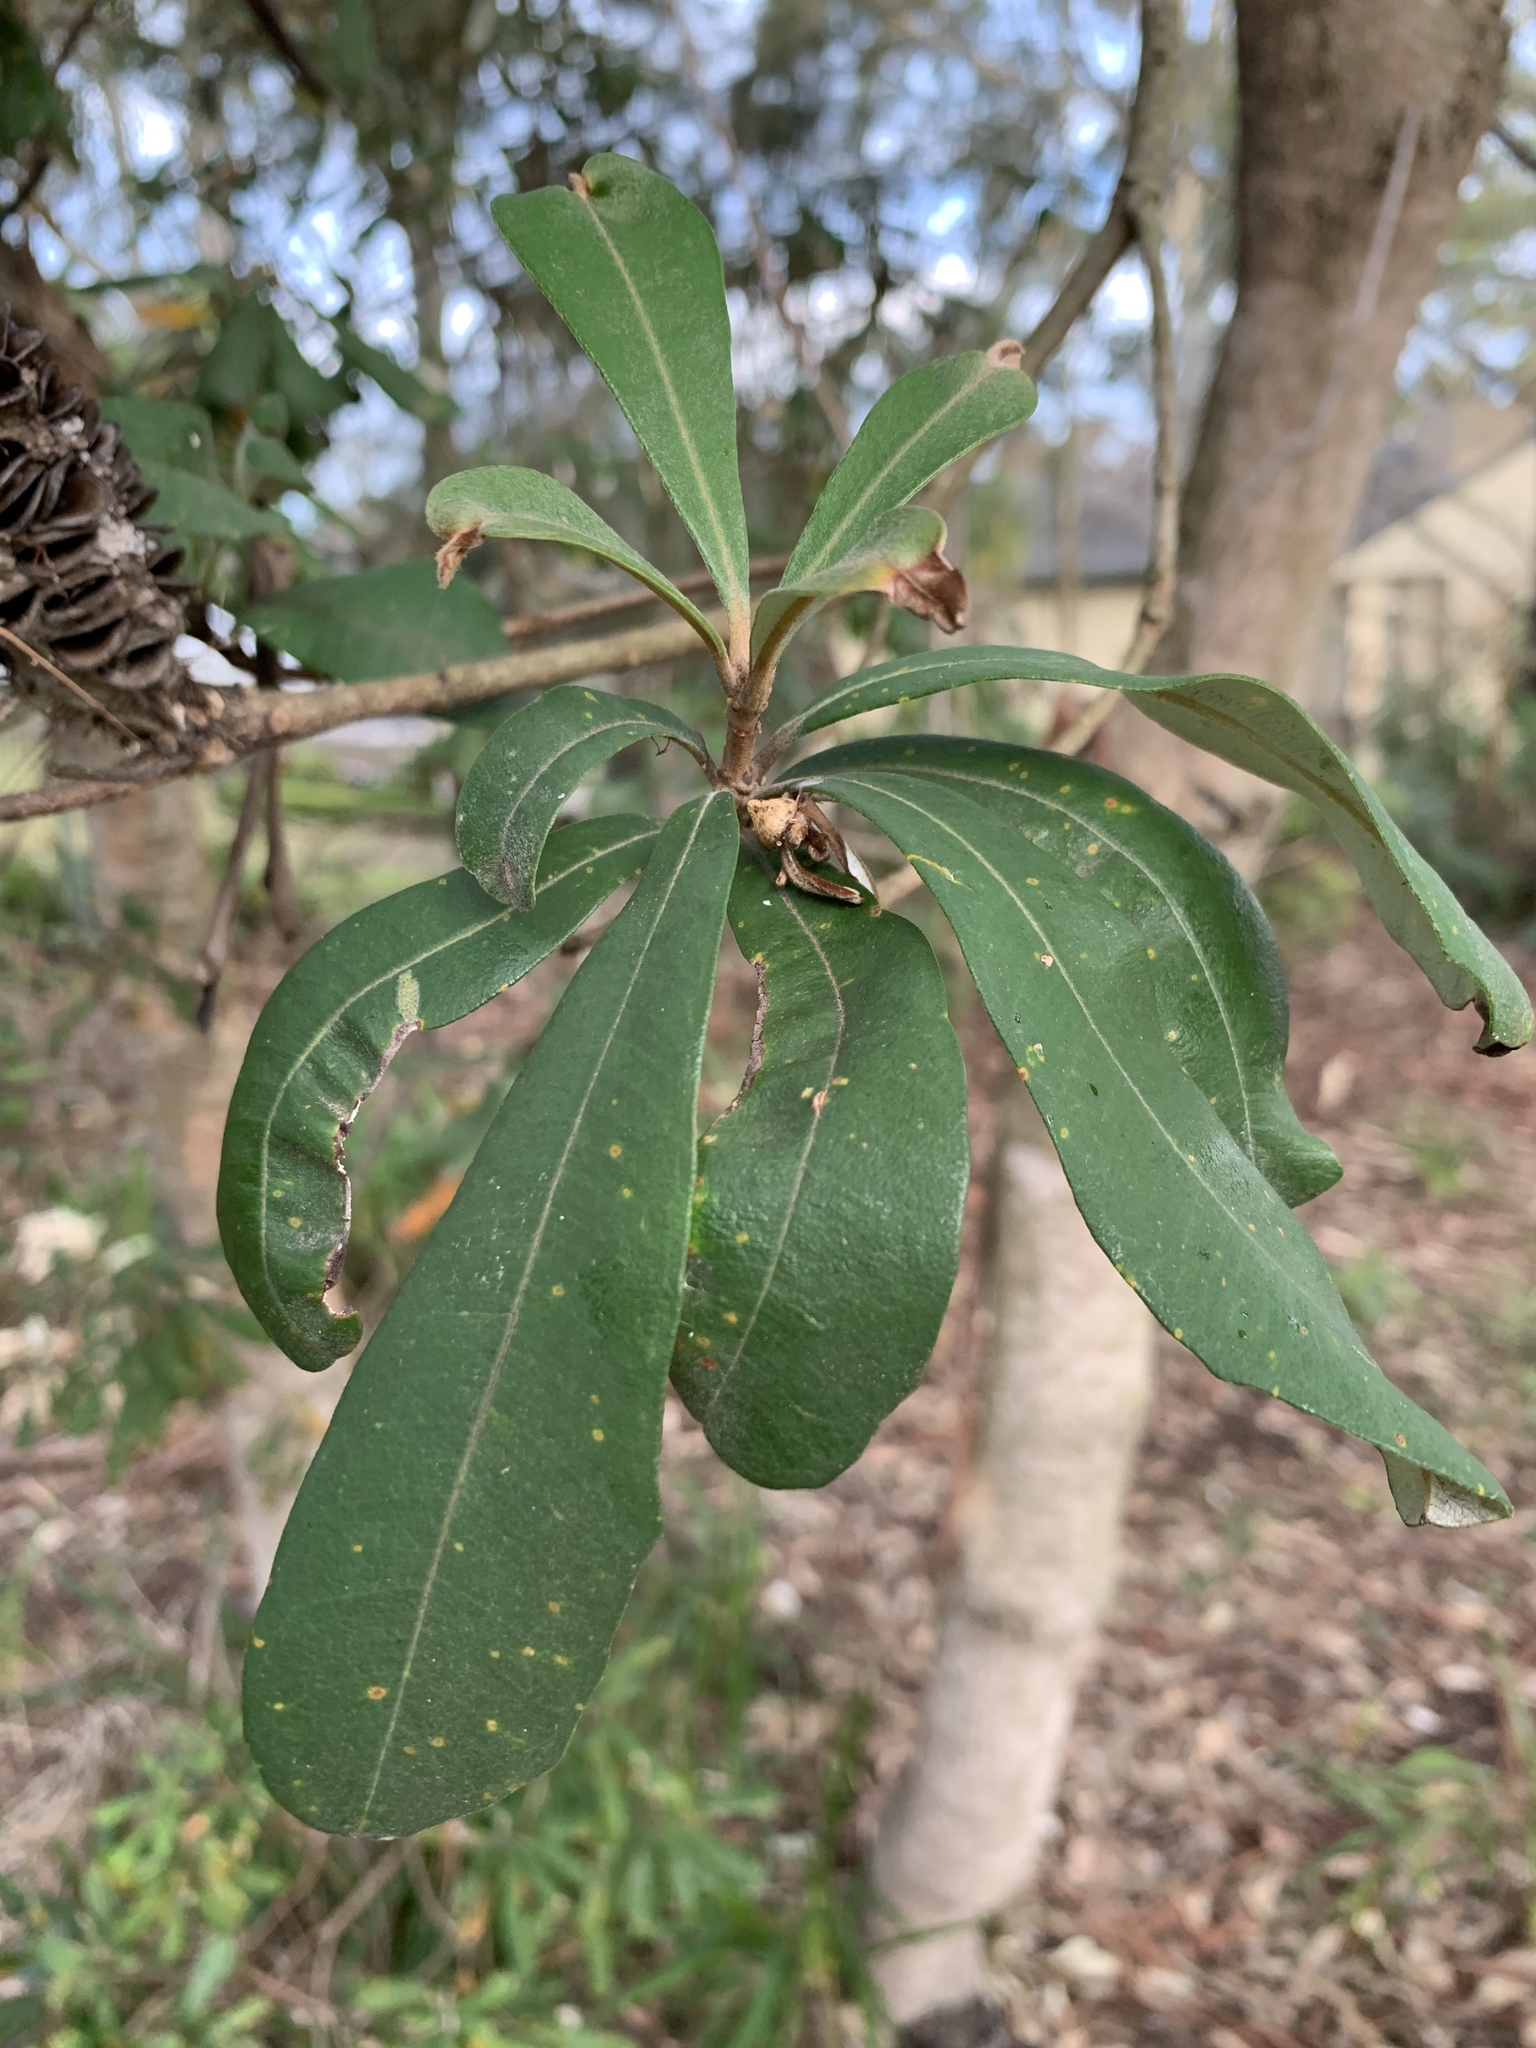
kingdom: Plantae
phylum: Tracheophyta
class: Magnoliopsida
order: Proteales
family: Proteaceae
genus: Banksia
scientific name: Banksia integrifolia
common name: White-honeysuckle
